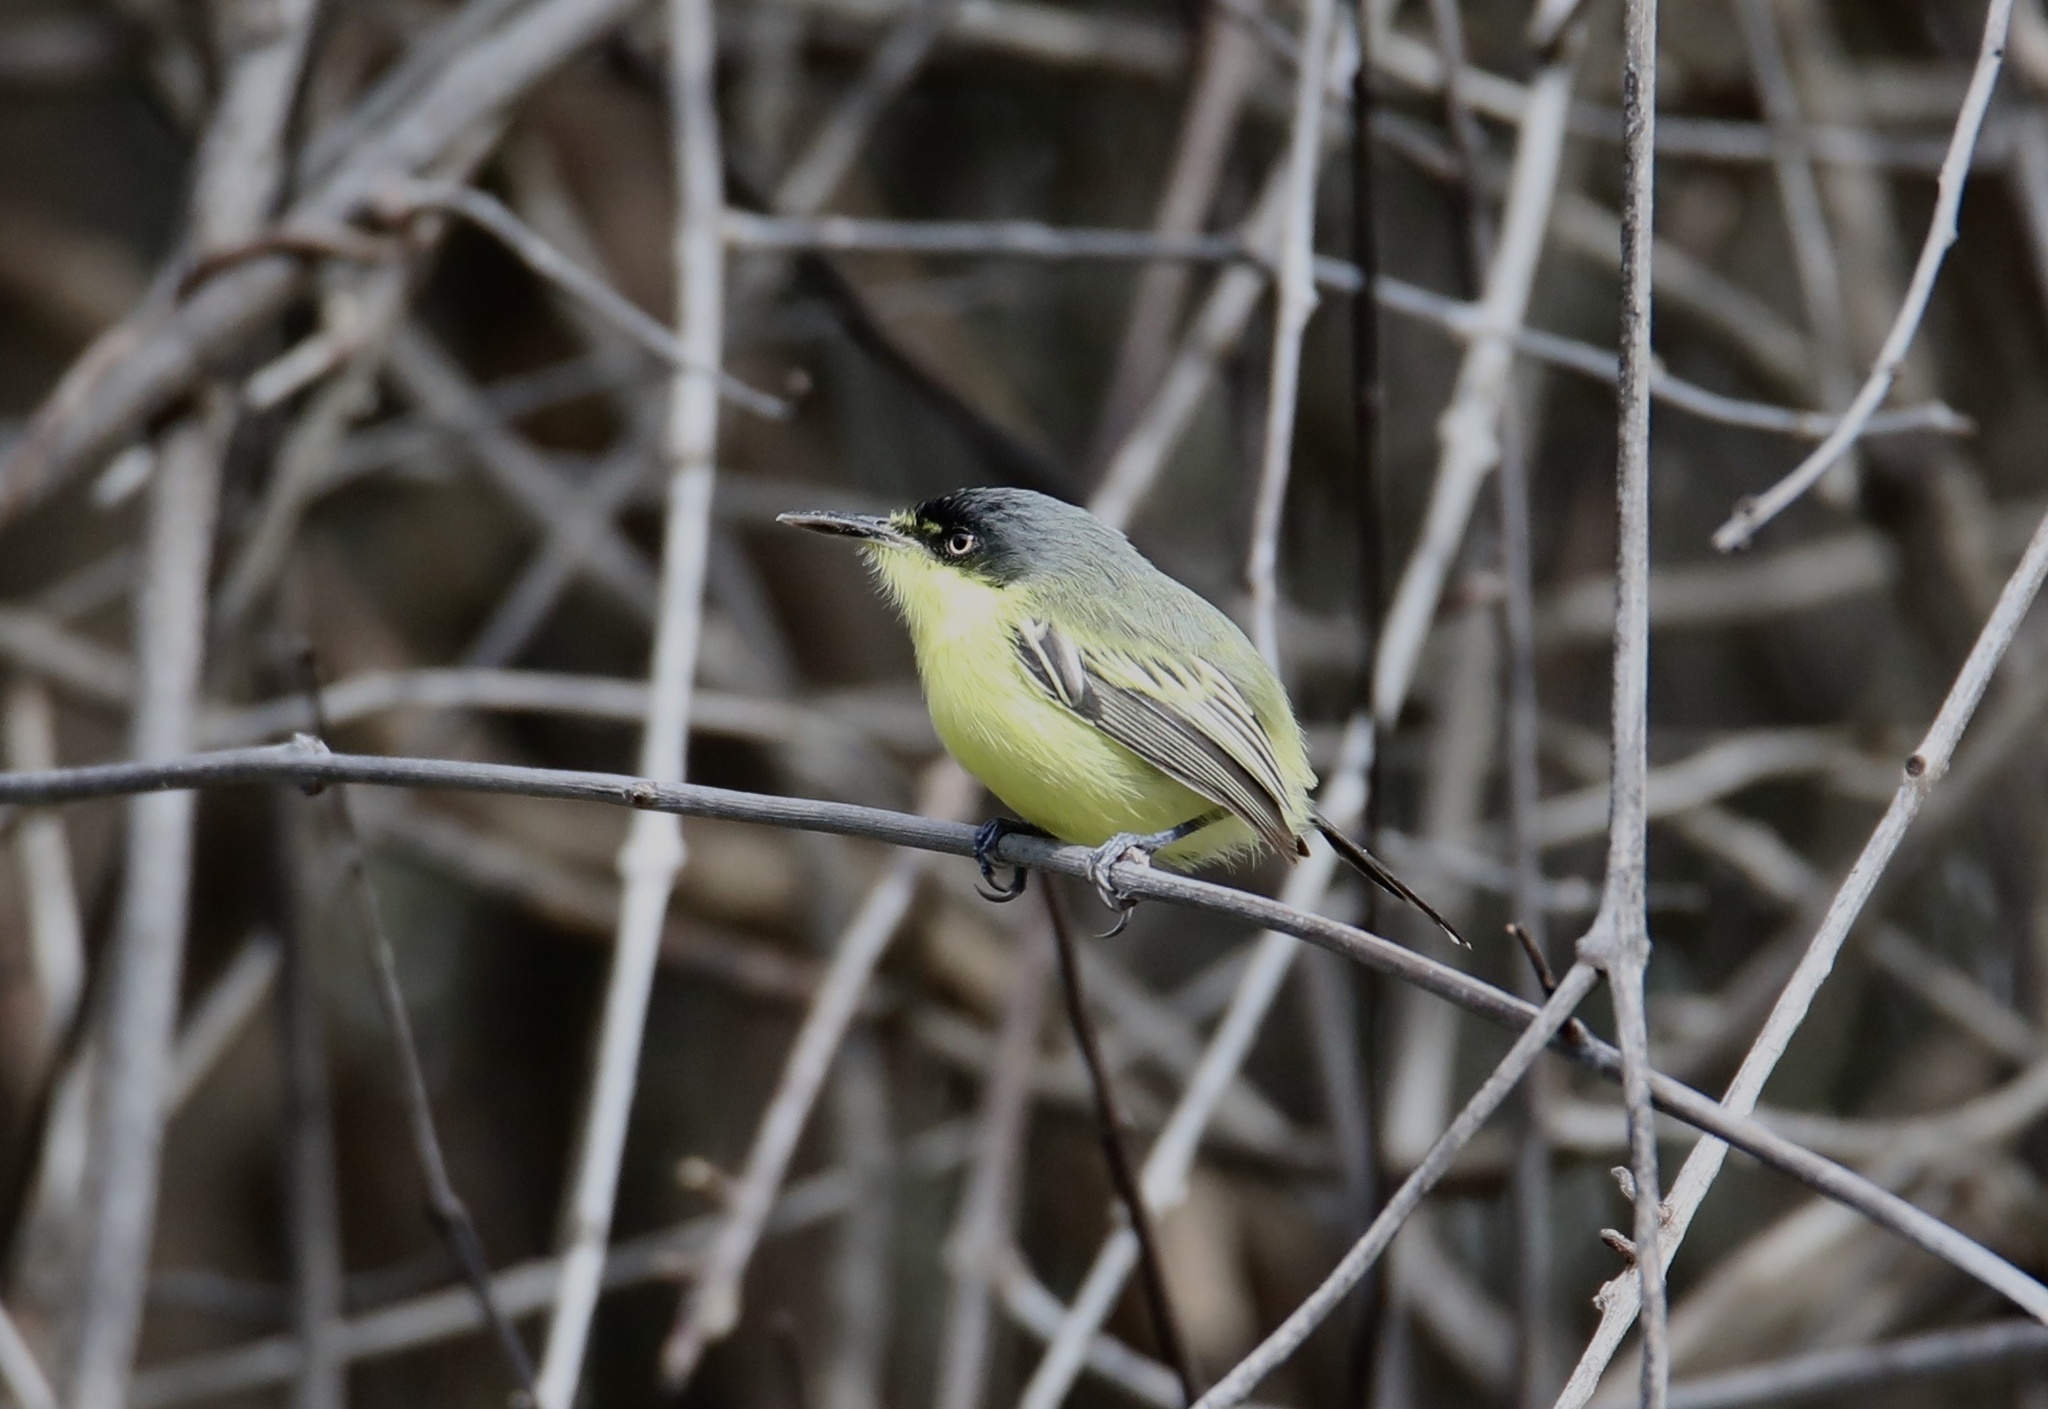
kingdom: Animalia
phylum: Chordata
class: Aves
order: Passeriformes
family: Tyrannidae
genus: Todirostrum
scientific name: Todirostrum cinereum
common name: Common tody-flycatcher
